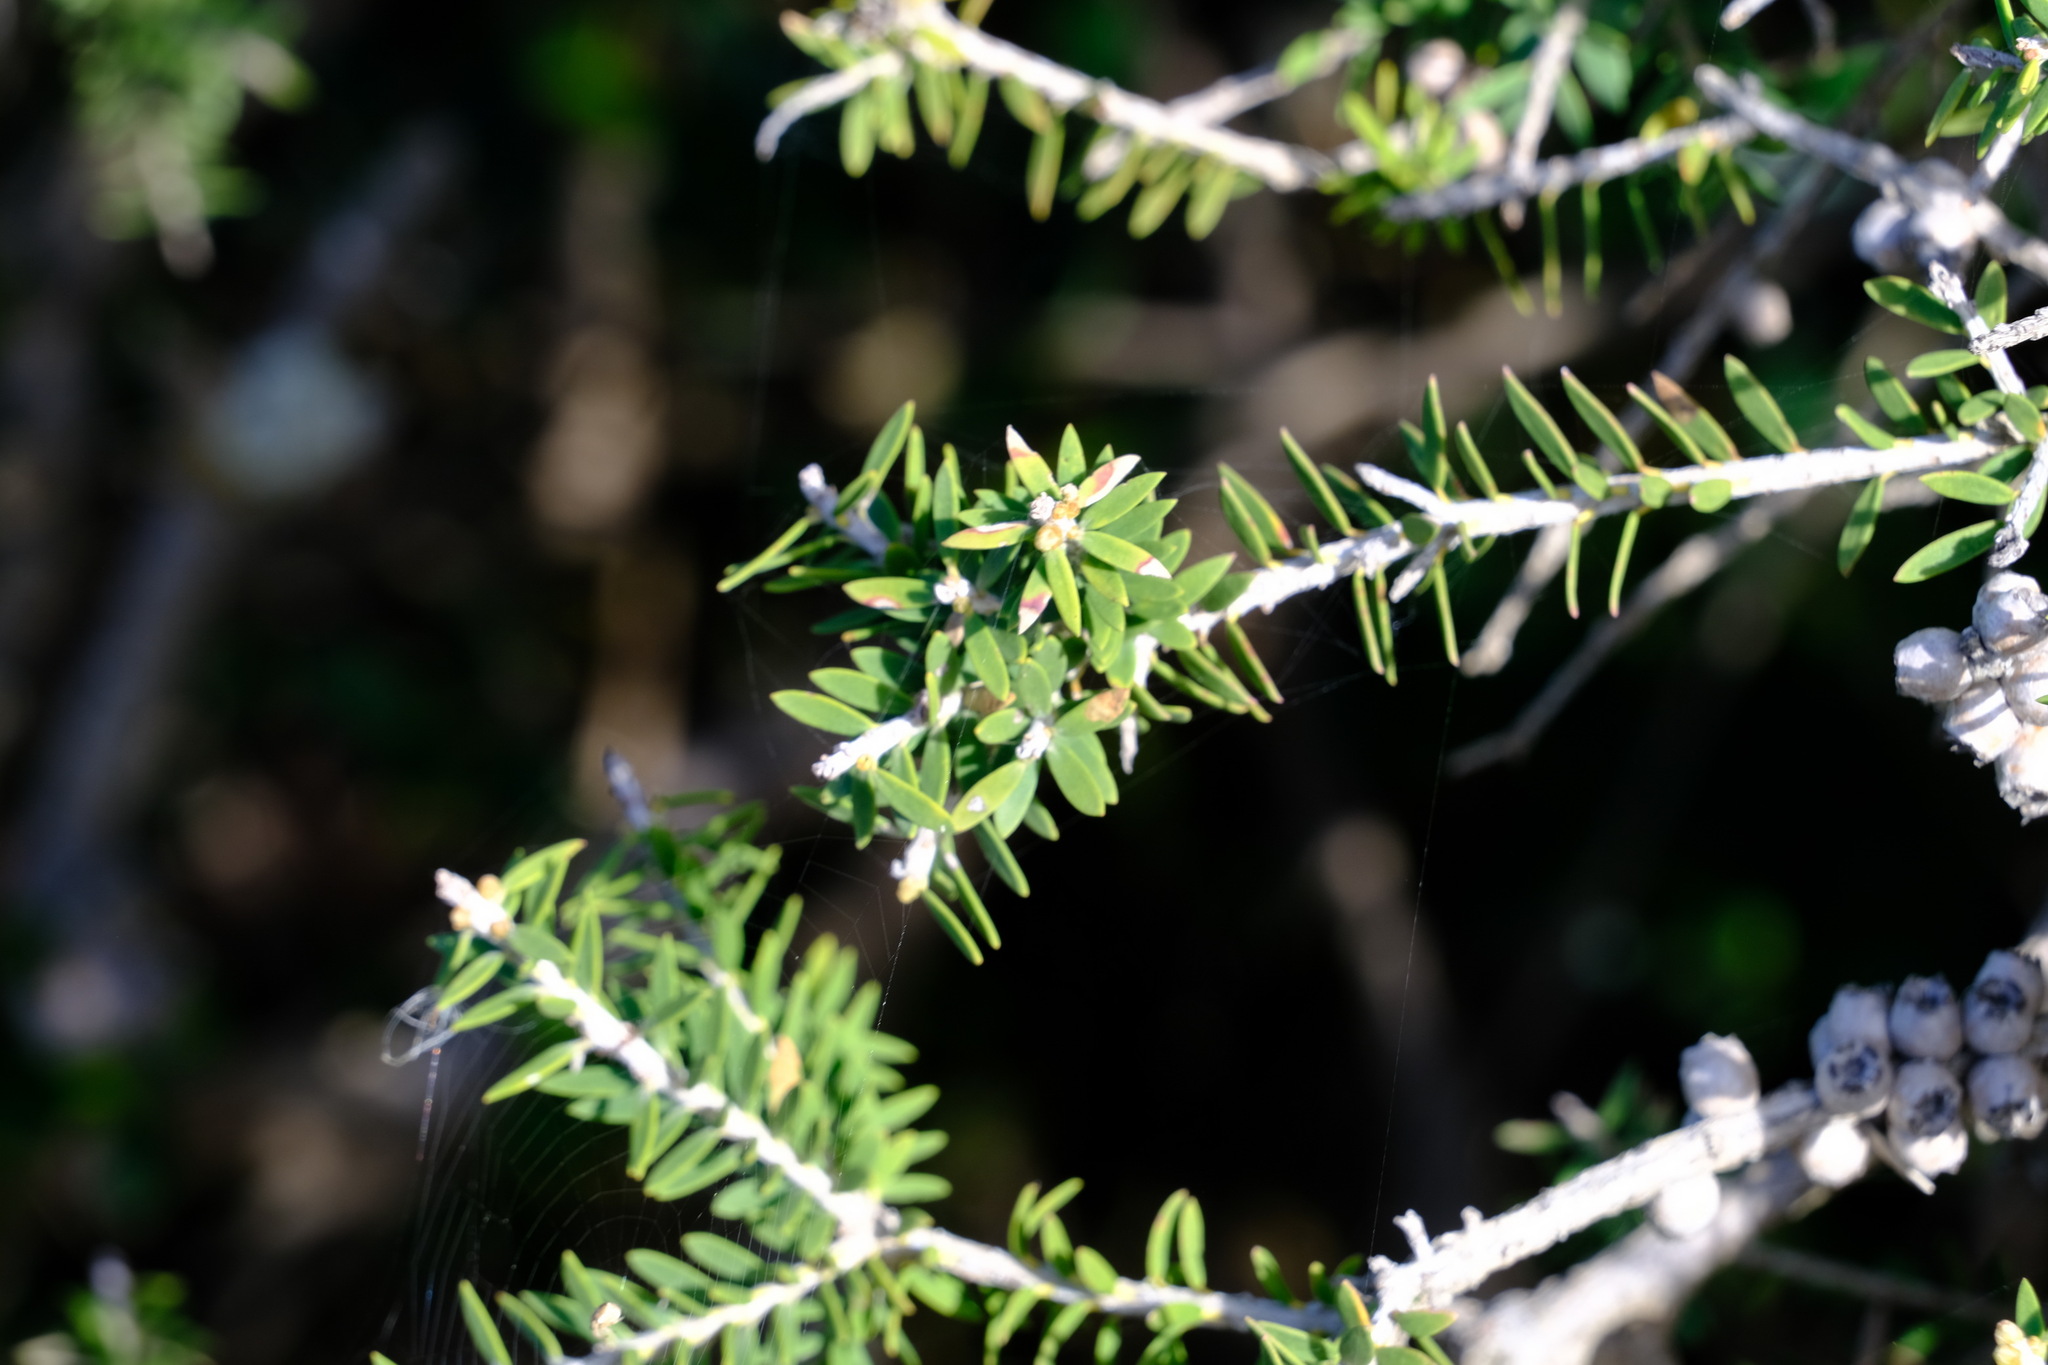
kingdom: Plantae
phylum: Tracheophyta
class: Magnoliopsida
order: Myrtales
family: Myrtaceae
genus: Melaleuca
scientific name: Melaleuca lanceolata
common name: Rottnest island teatree
